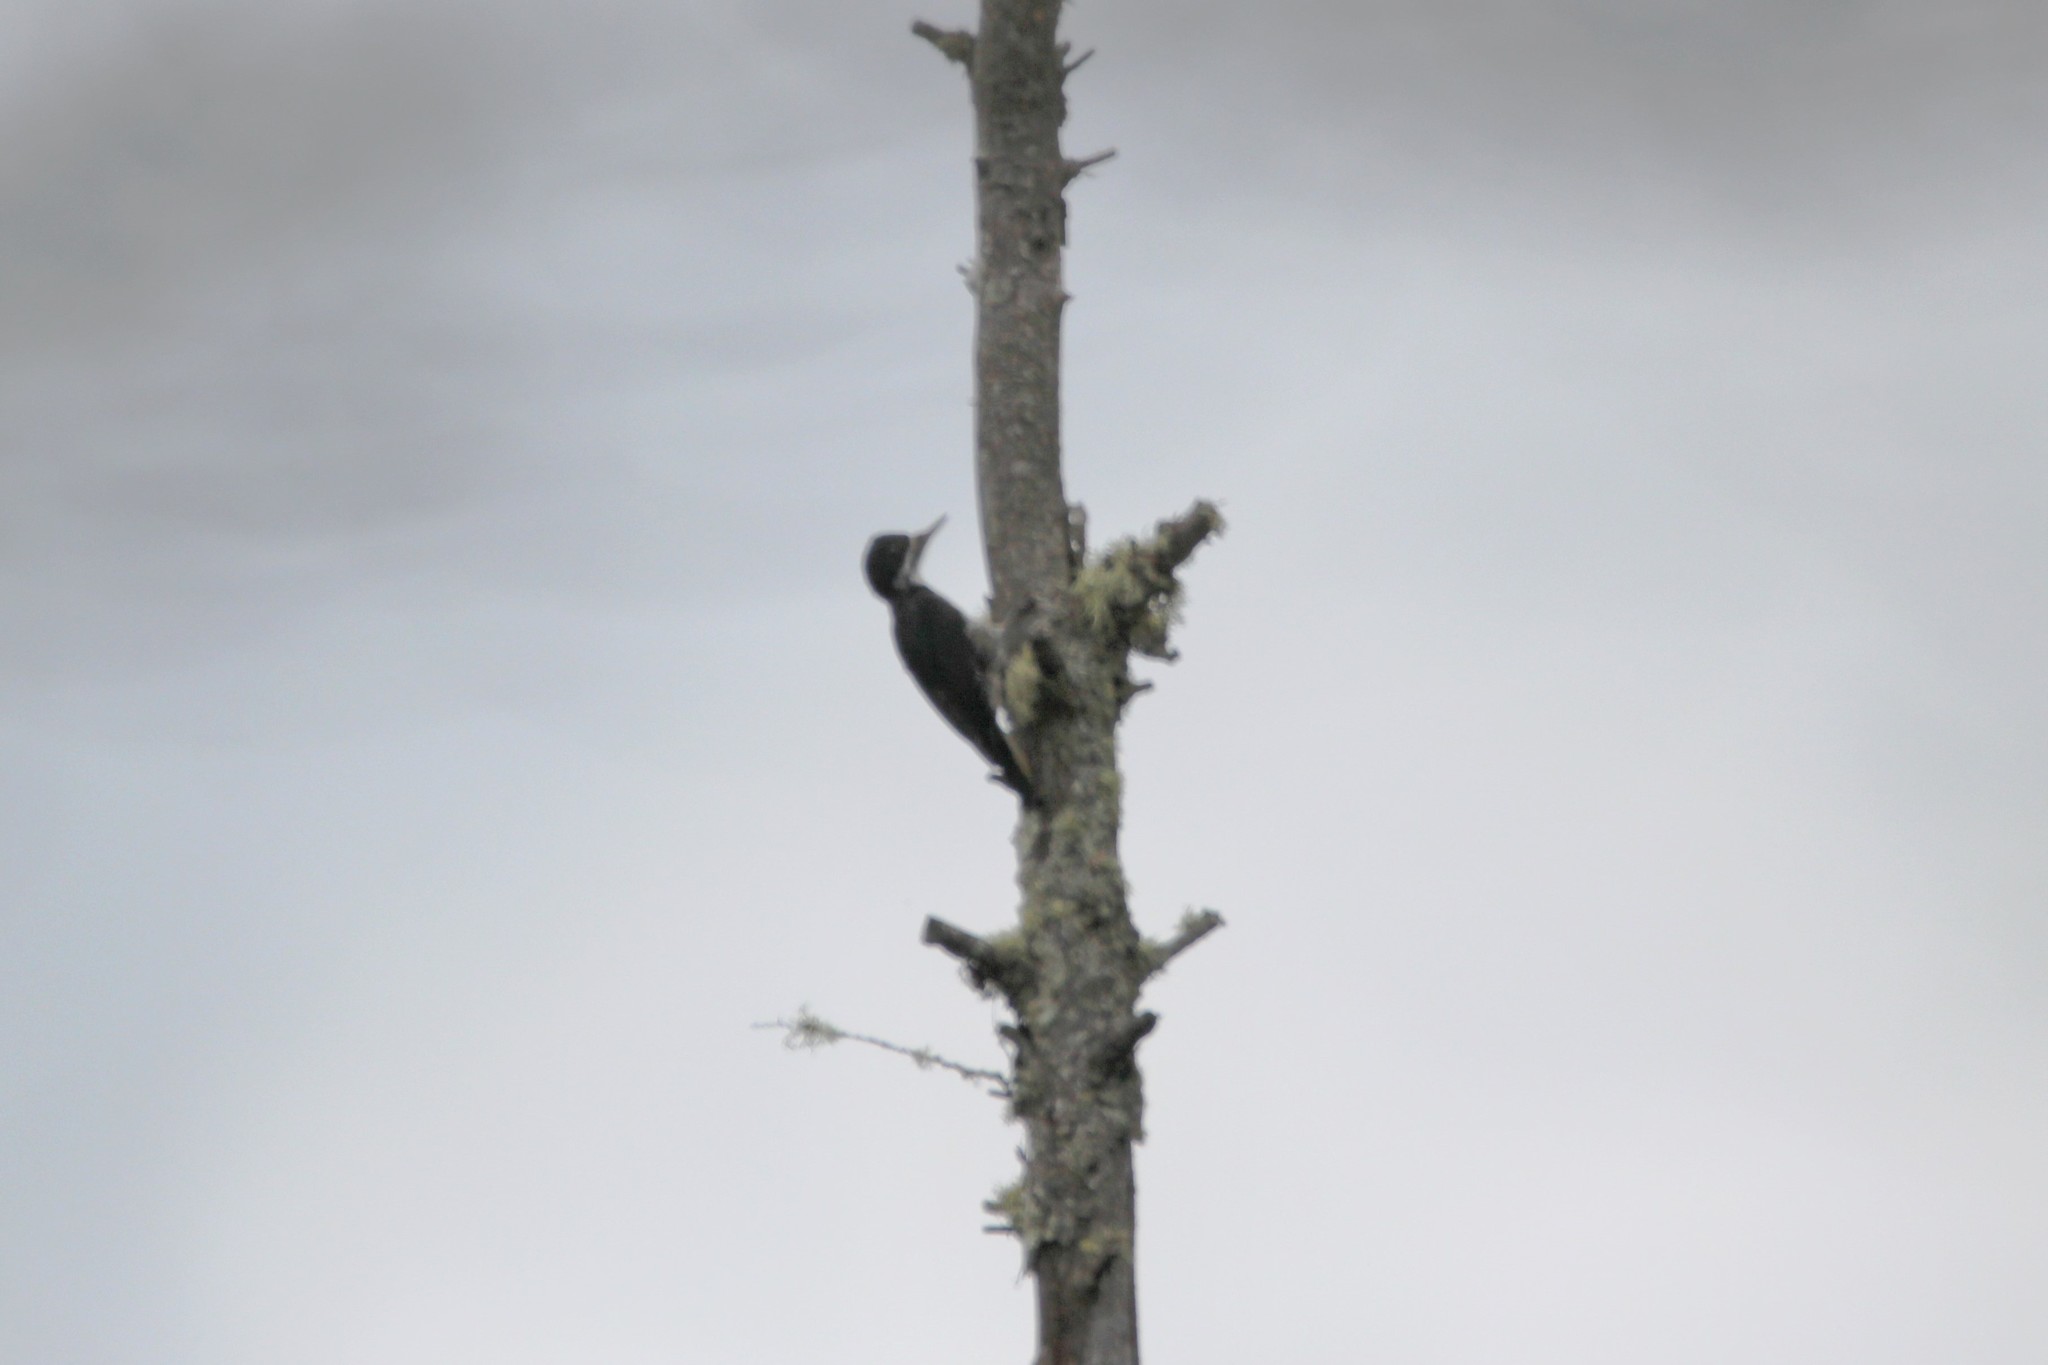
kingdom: Animalia
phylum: Chordata
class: Aves
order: Piciformes
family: Picidae
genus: Picoides
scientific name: Picoides arcticus
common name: Black-backed woodpecker
